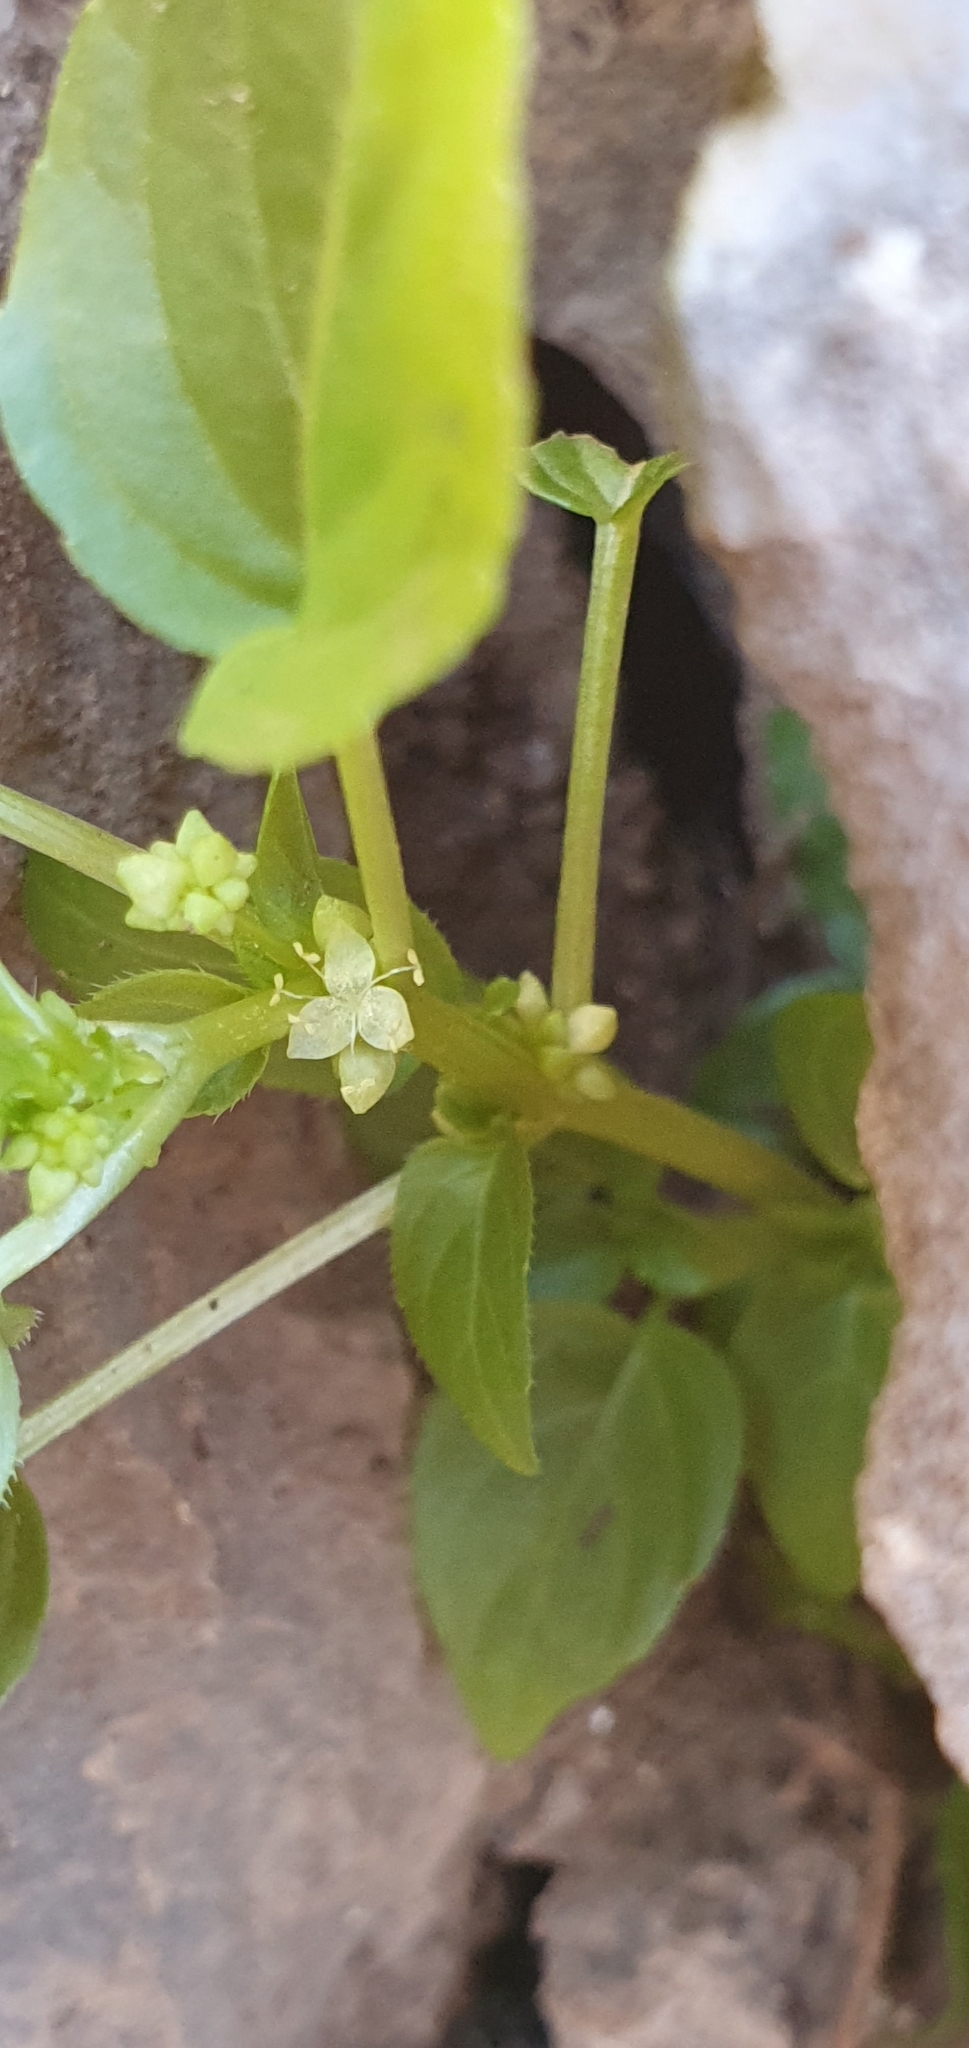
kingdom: Plantae
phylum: Tracheophyta
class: Magnoliopsida
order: Malpighiales
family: Euphorbiaceae
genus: Mercurialis
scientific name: Mercurialis annua
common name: Annual mercury
